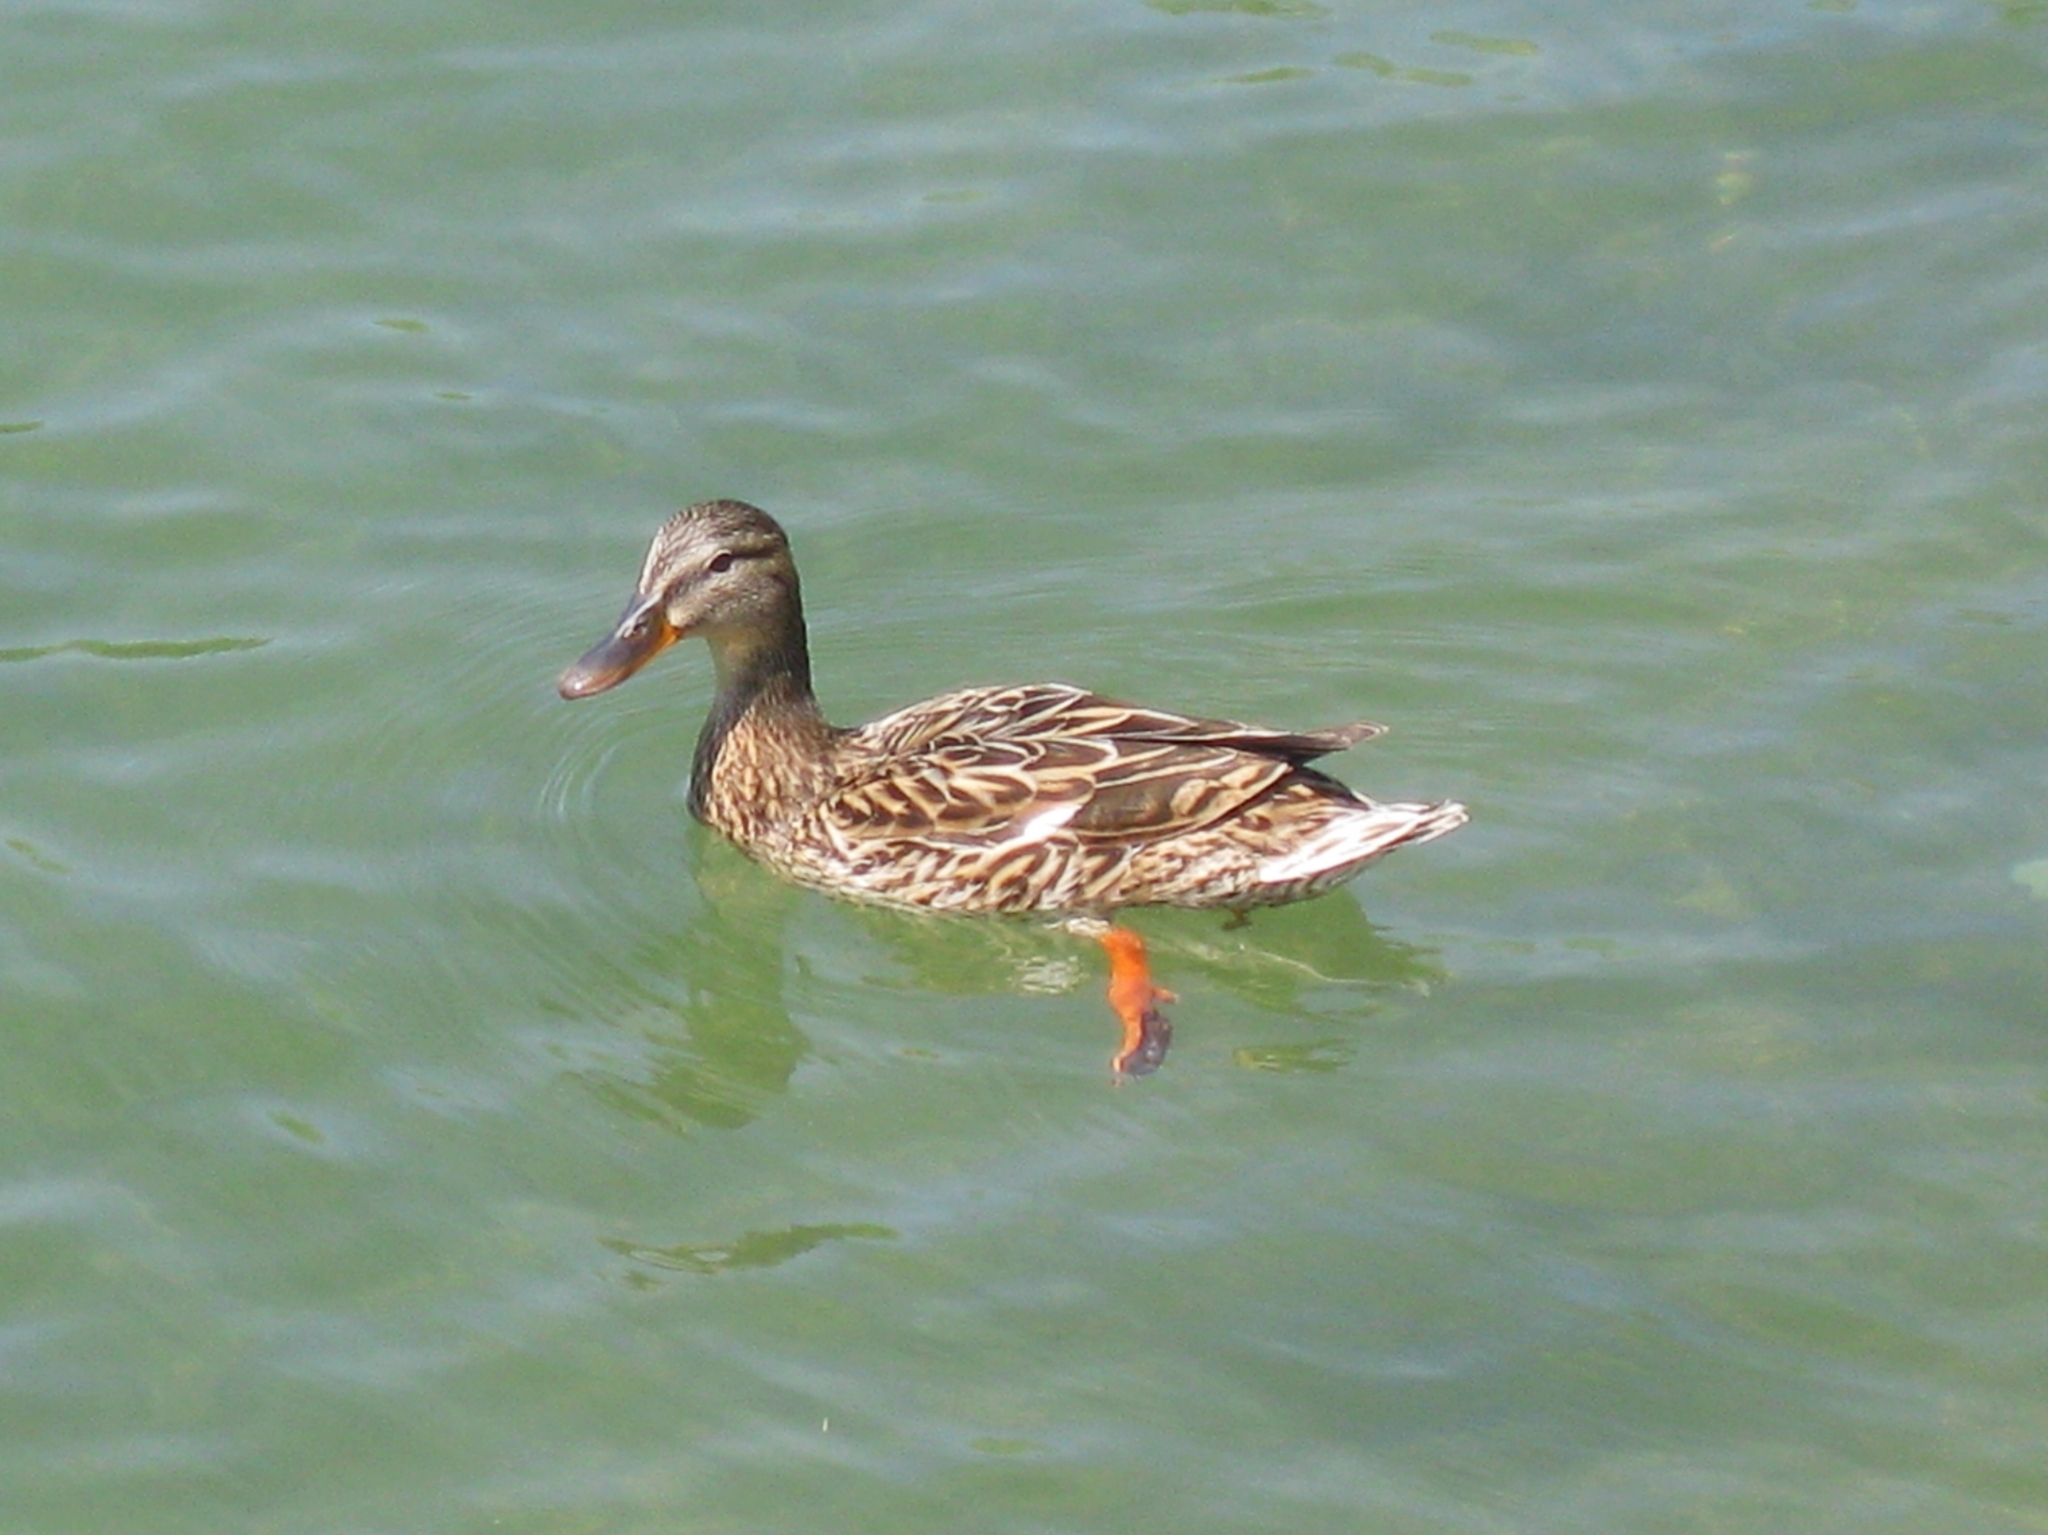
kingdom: Animalia
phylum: Chordata
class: Aves
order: Anseriformes
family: Anatidae
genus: Anas
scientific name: Anas platyrhynchos
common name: Mallard
